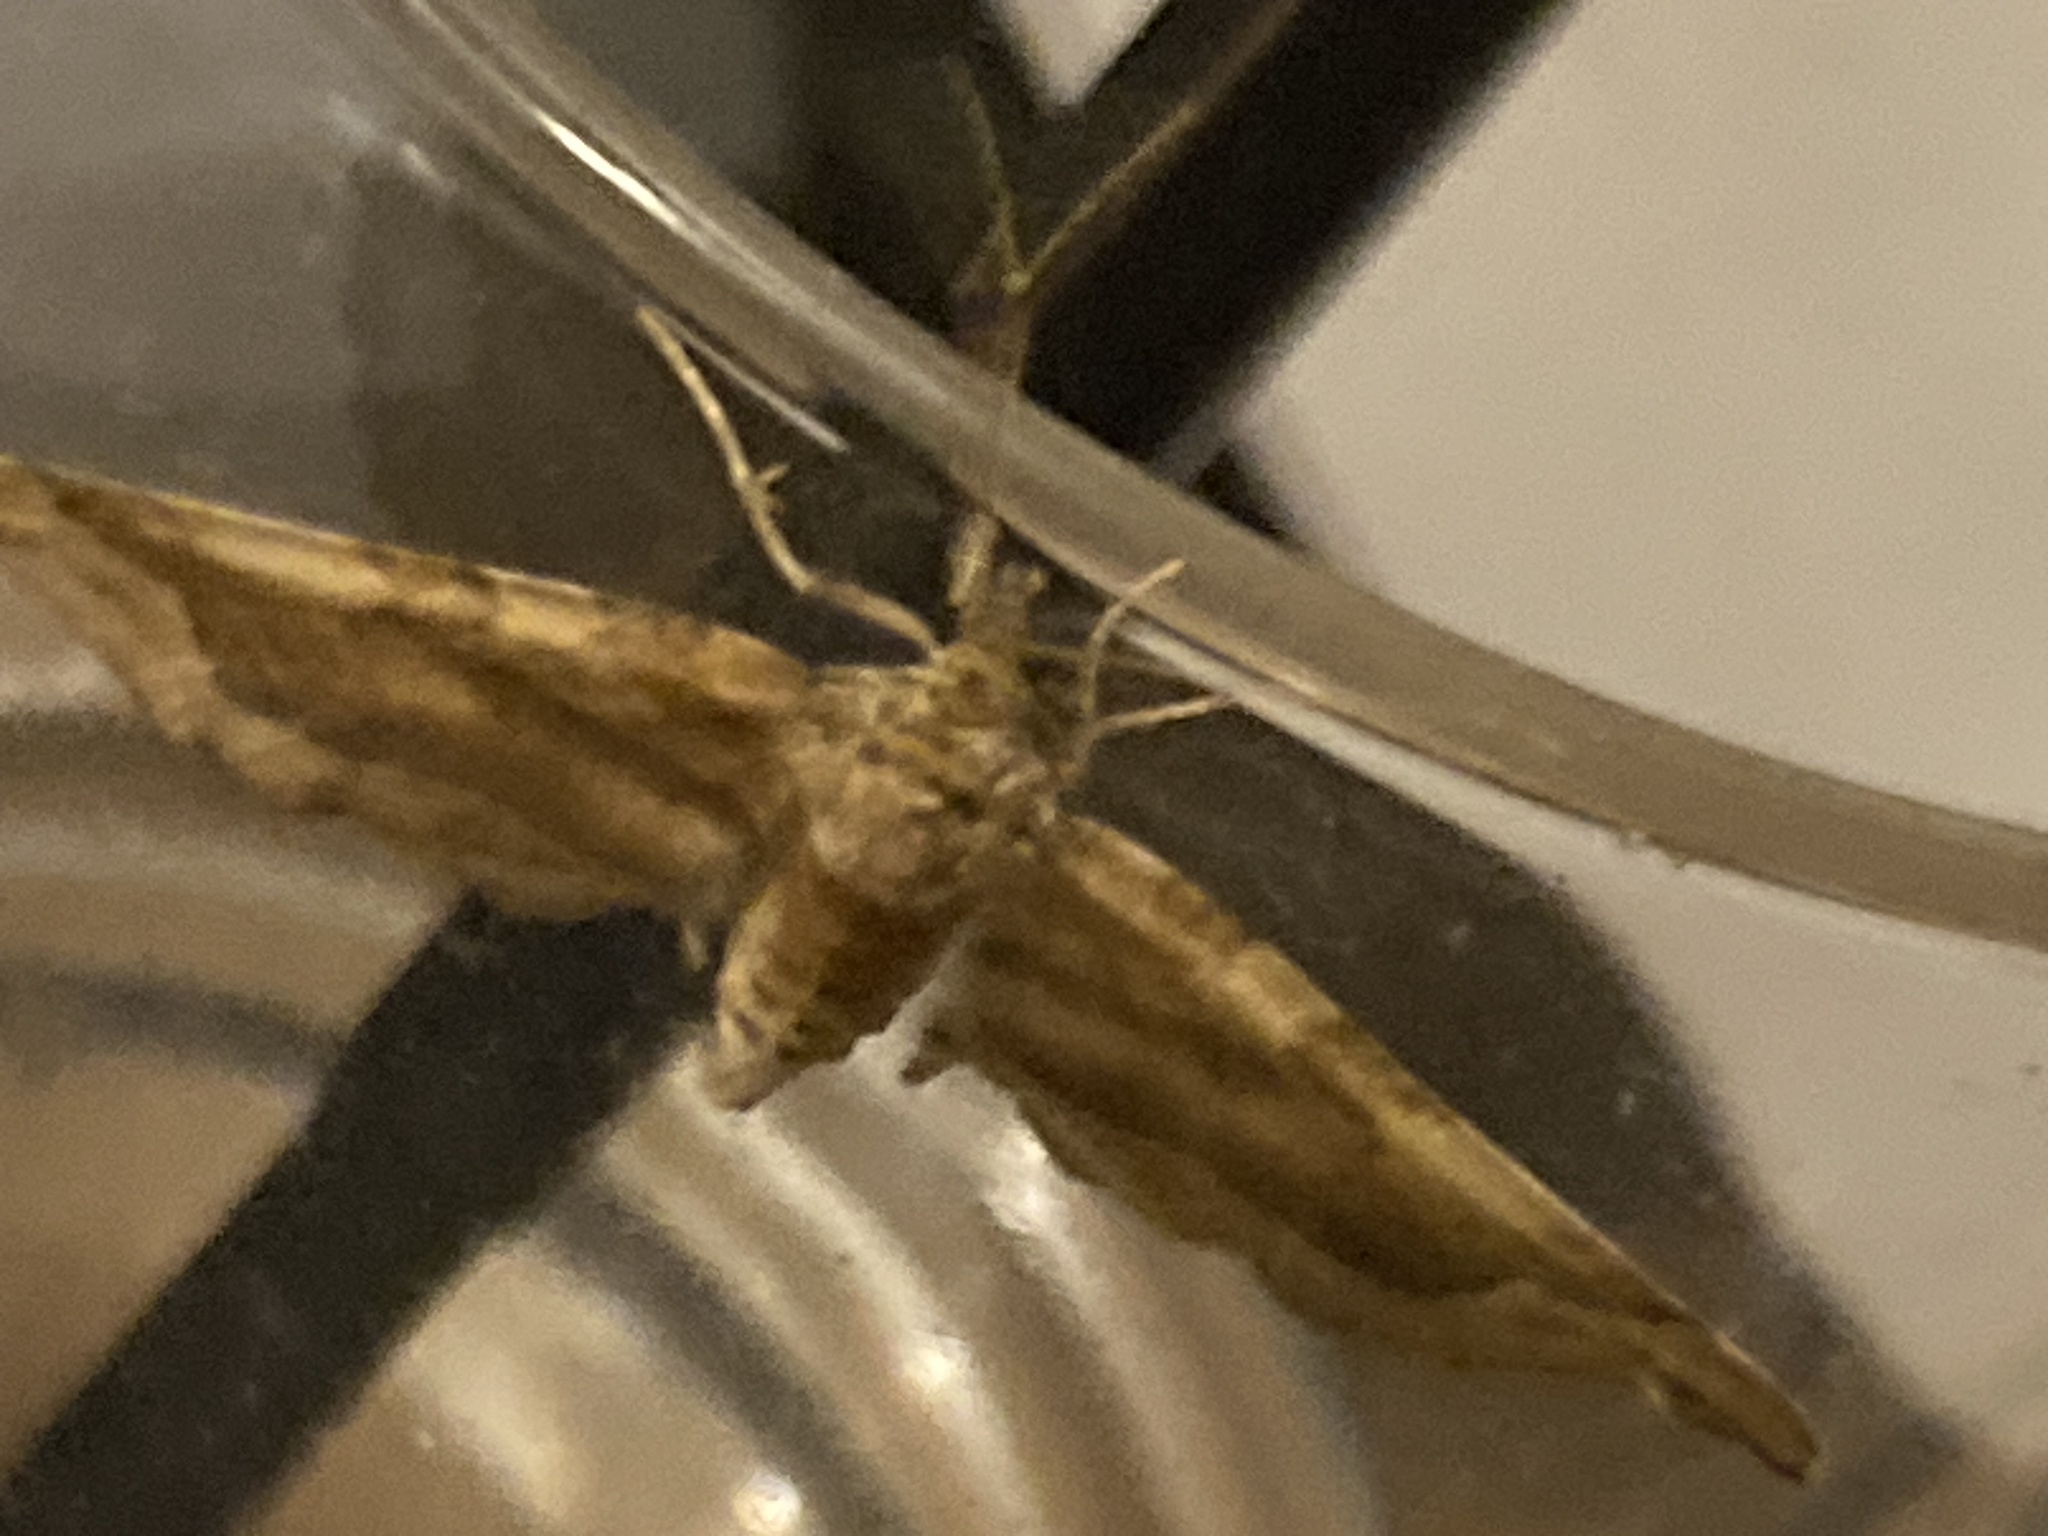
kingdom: Animalia
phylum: Arthropoda
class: Insecta
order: Lepidoptera
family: Geometridae
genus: Pelurga
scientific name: Pelurga comitata
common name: Dark spinach
